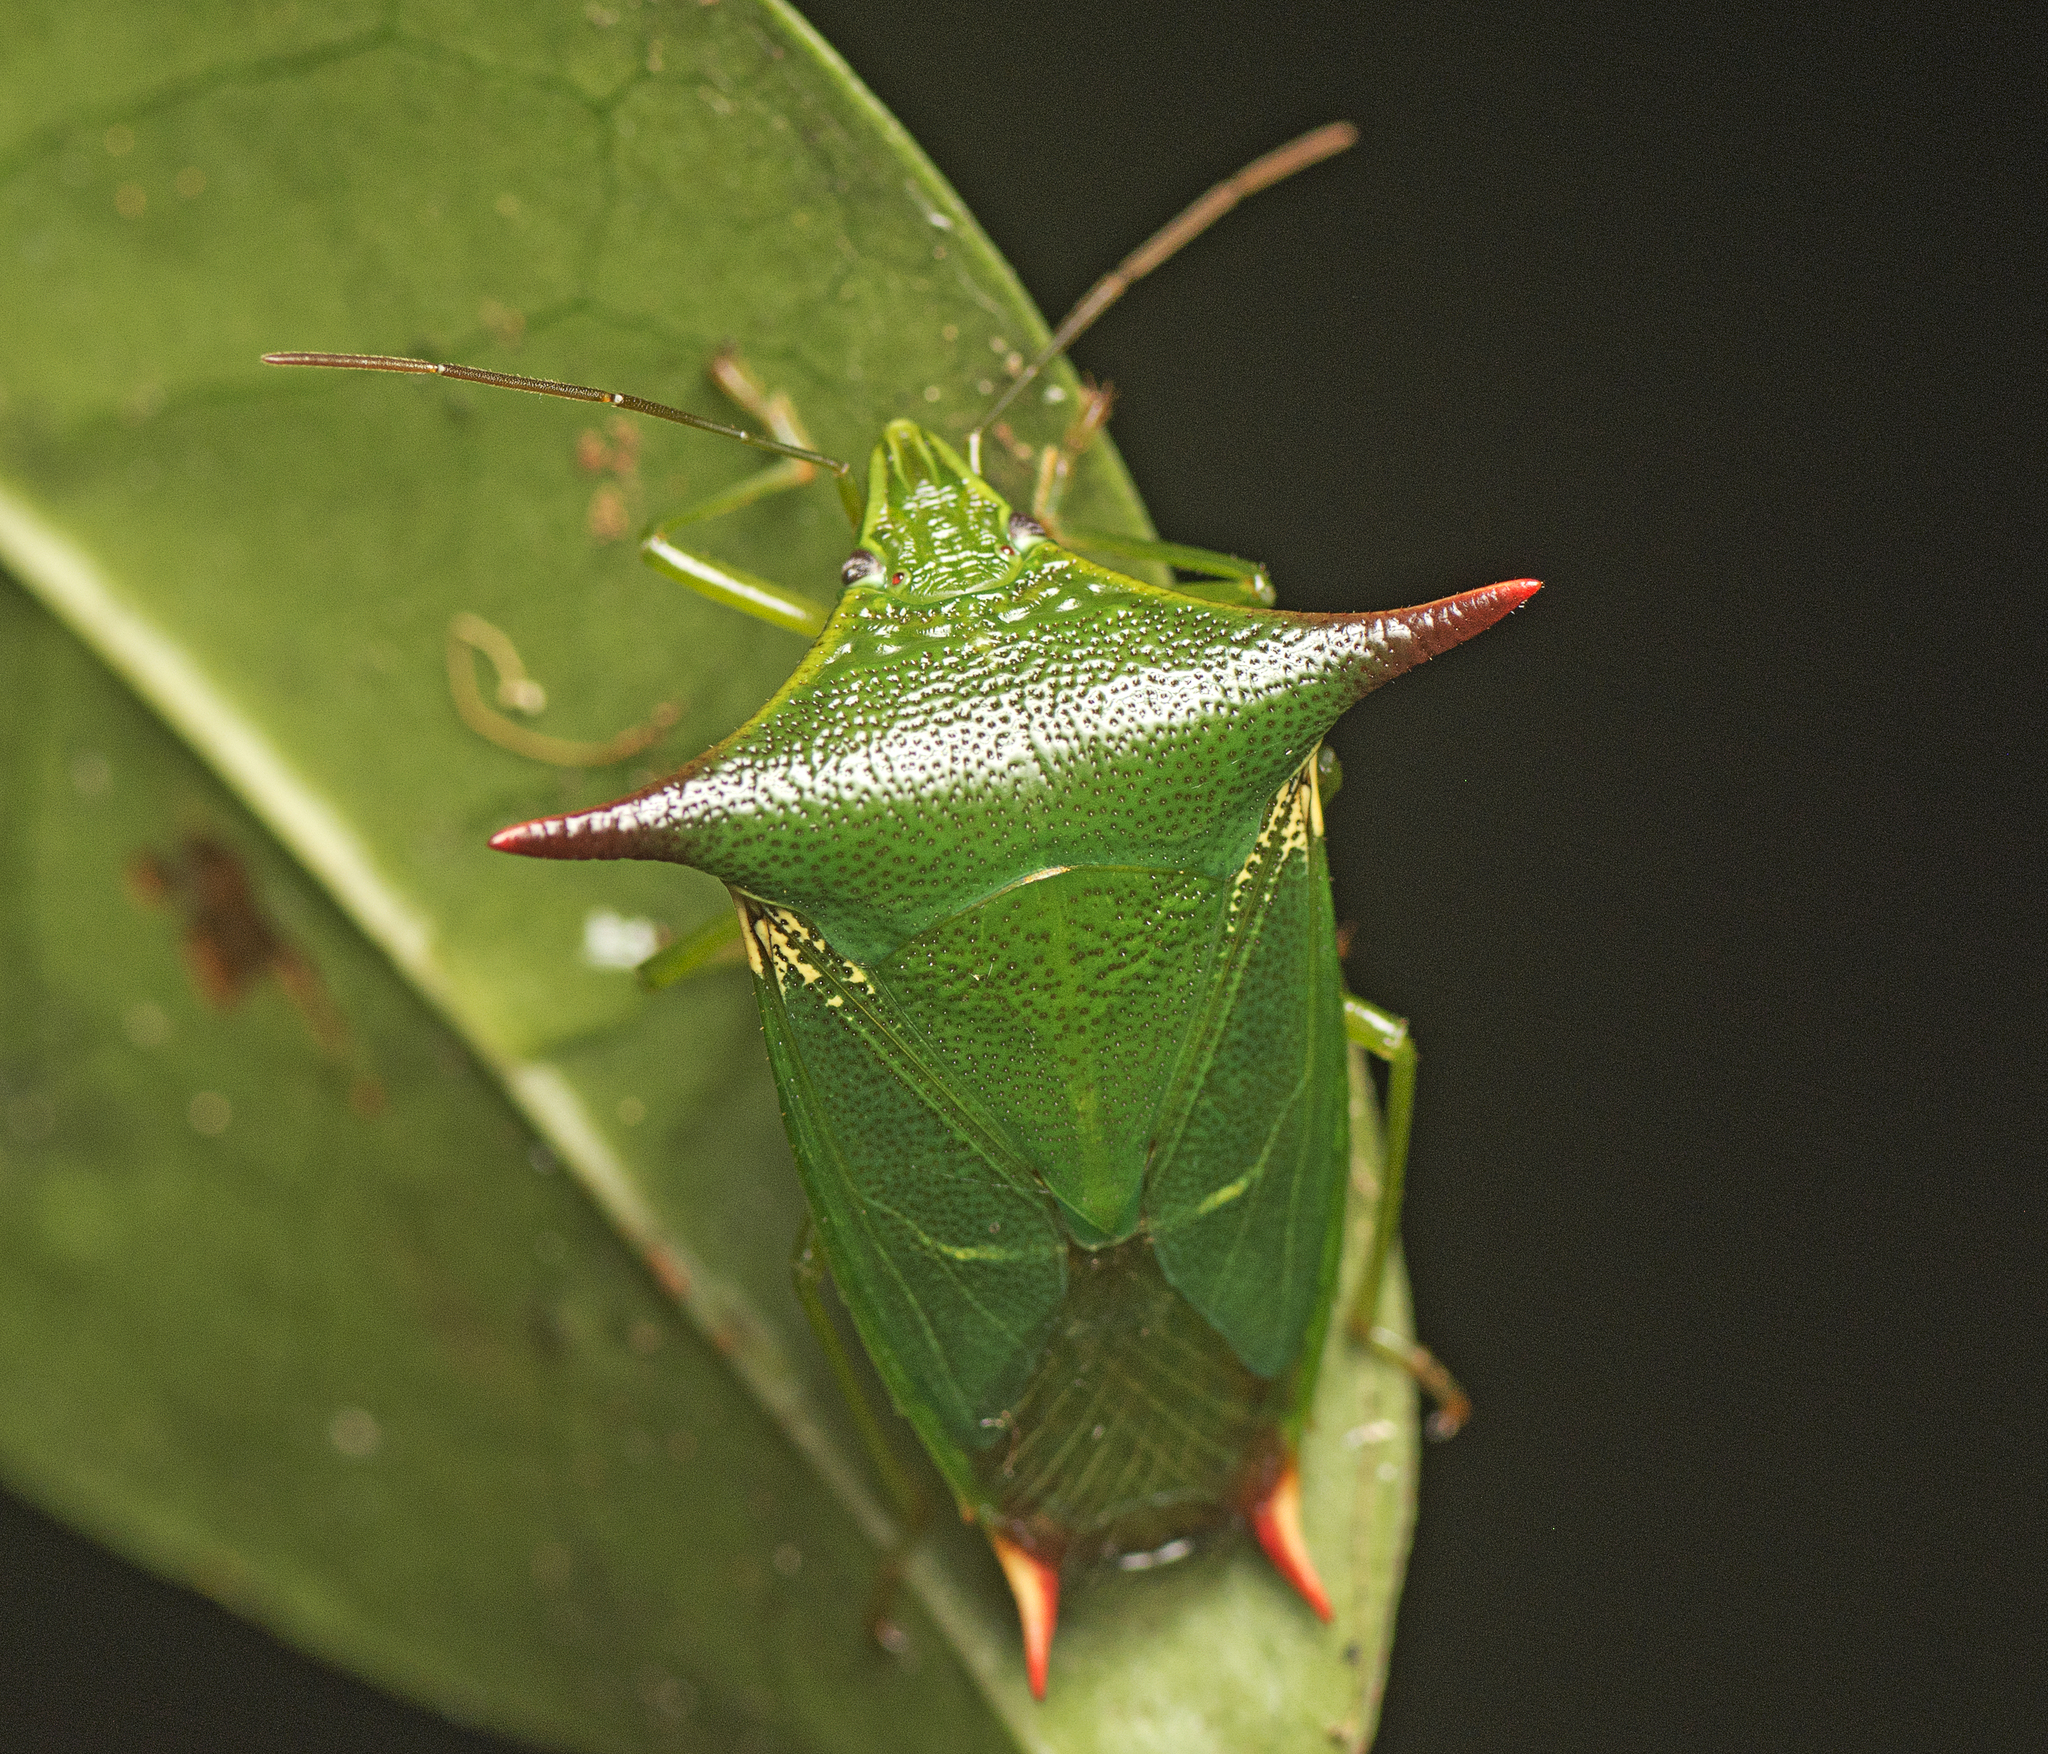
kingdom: Animalia
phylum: Arthropoda
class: Insecta
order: Hemiptera
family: Pentatomidae
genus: Vitellus
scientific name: Vitellus
